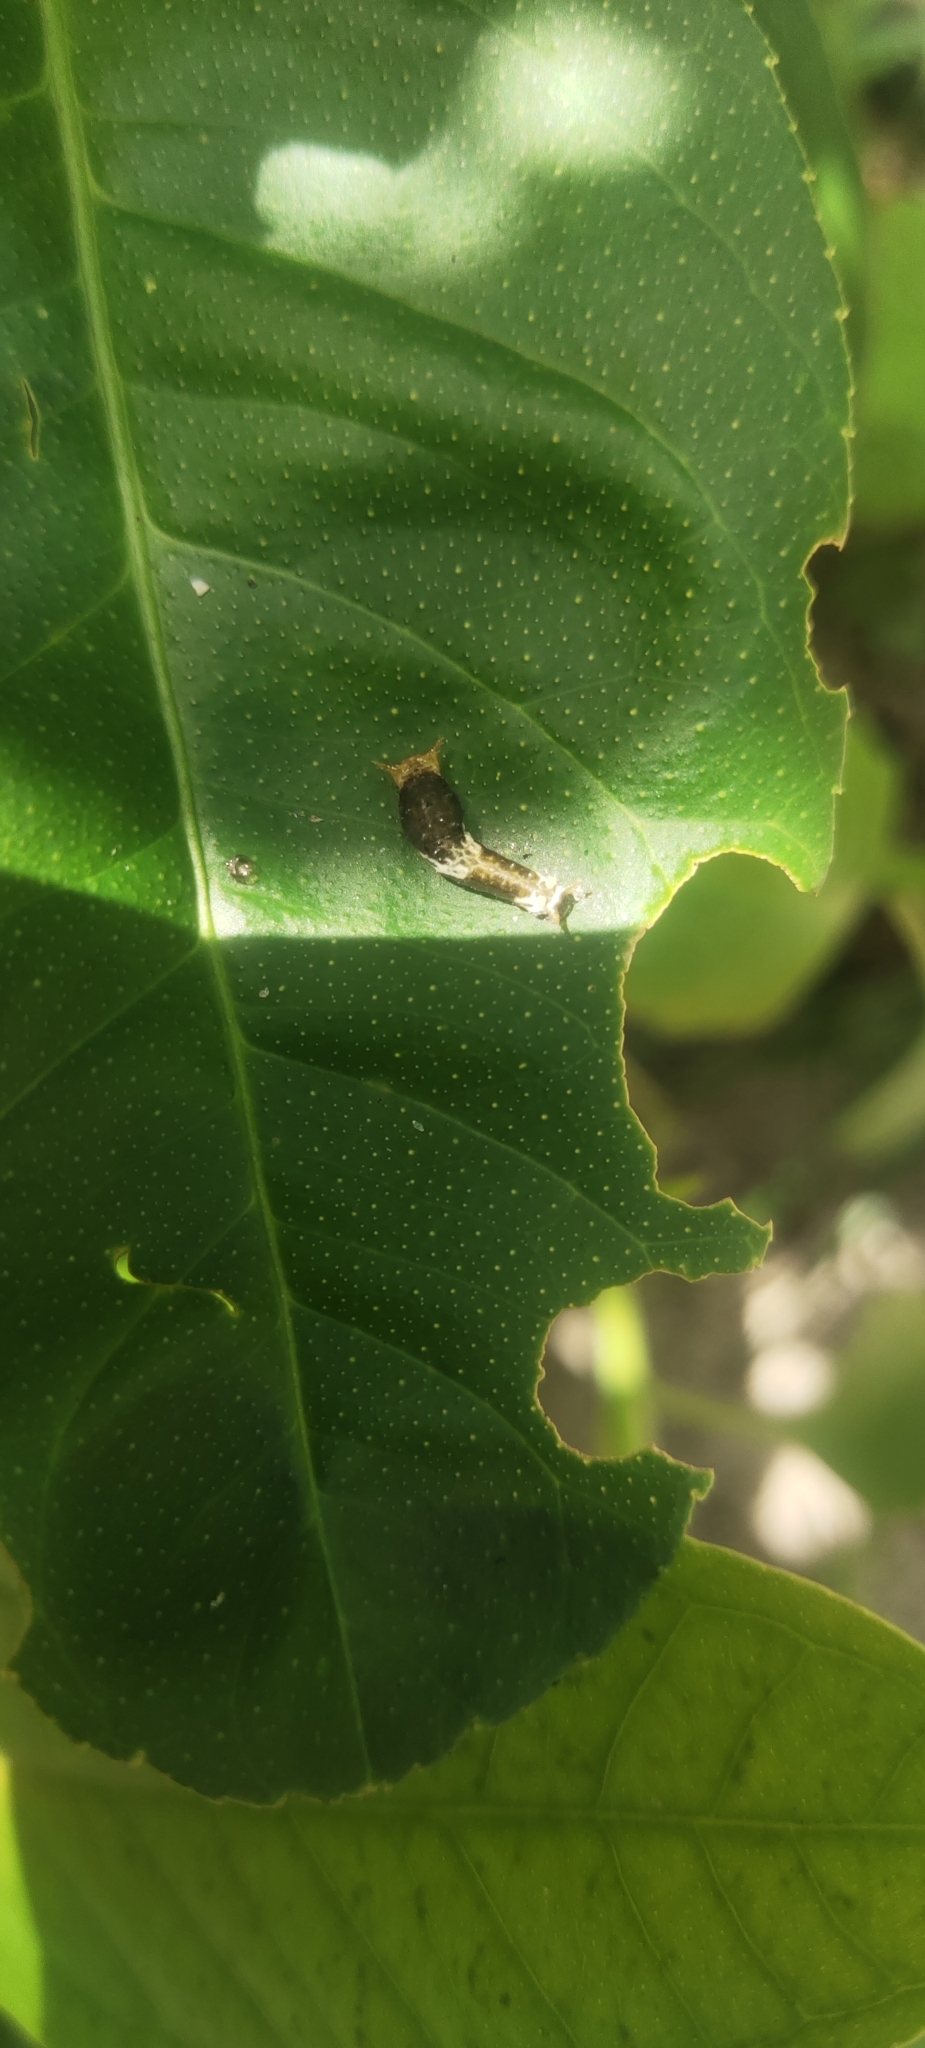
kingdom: Animalia
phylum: Arthropoda
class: Insecta
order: Lepidoptera
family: Papilionidae
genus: Papilio
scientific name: Papilio polytes
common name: Common mormon
